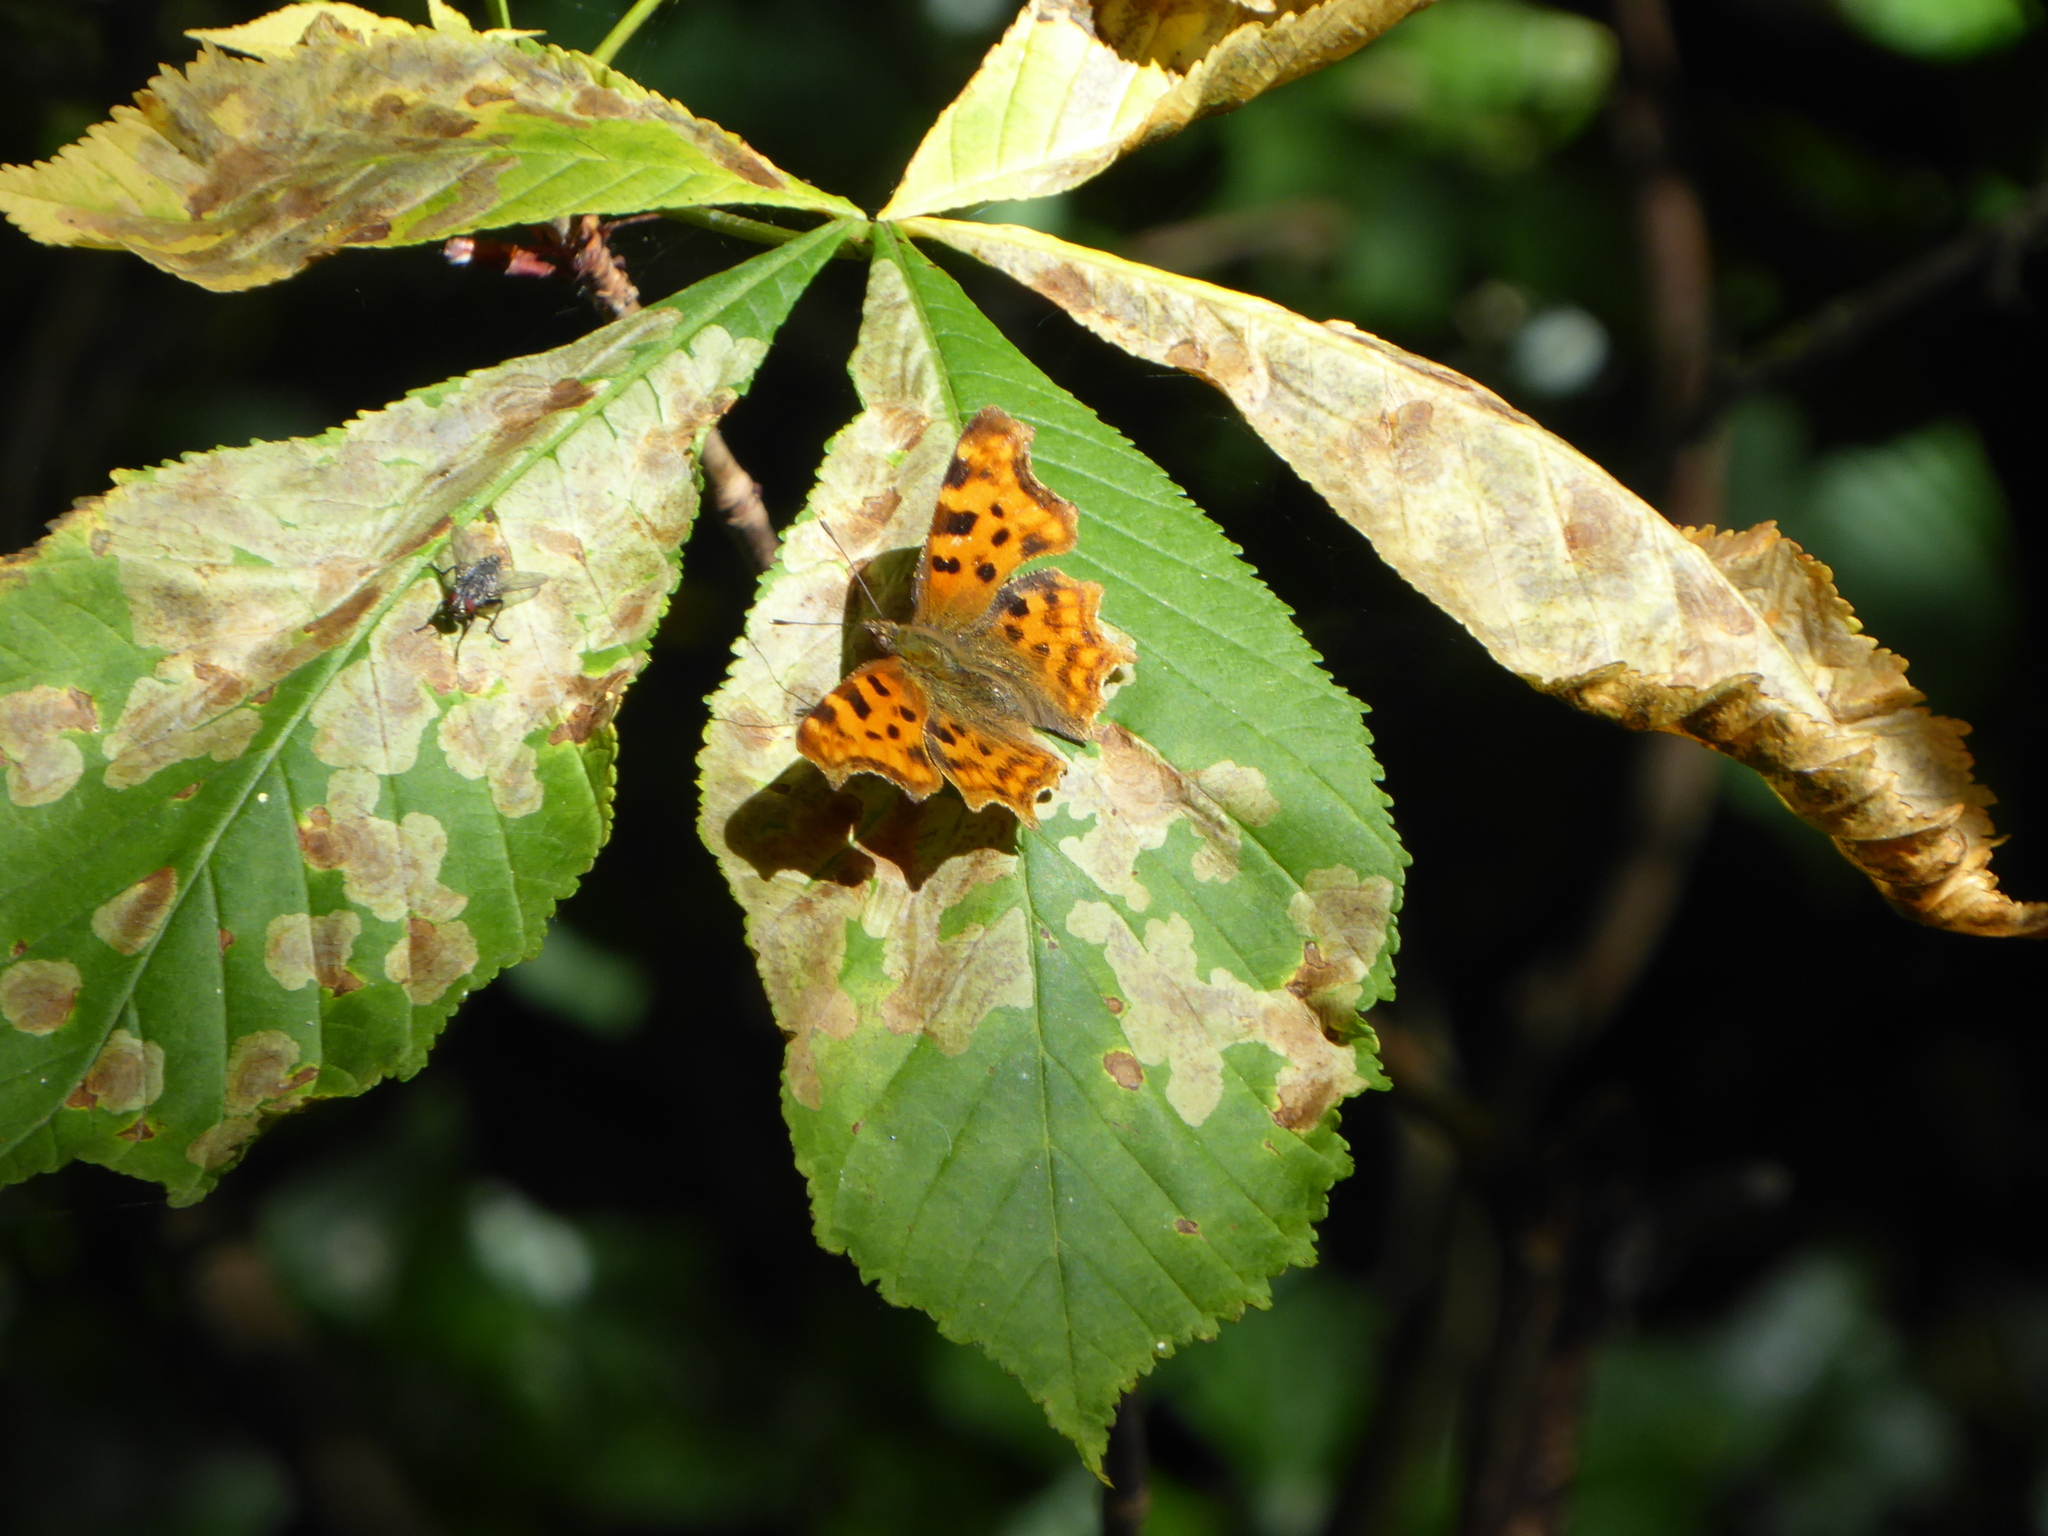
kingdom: Animalia
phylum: Arthropoda
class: Insecta
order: Lepidoptera
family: Nymphalidae
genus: Polygonia
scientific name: Polygonia c-album
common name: Comma
